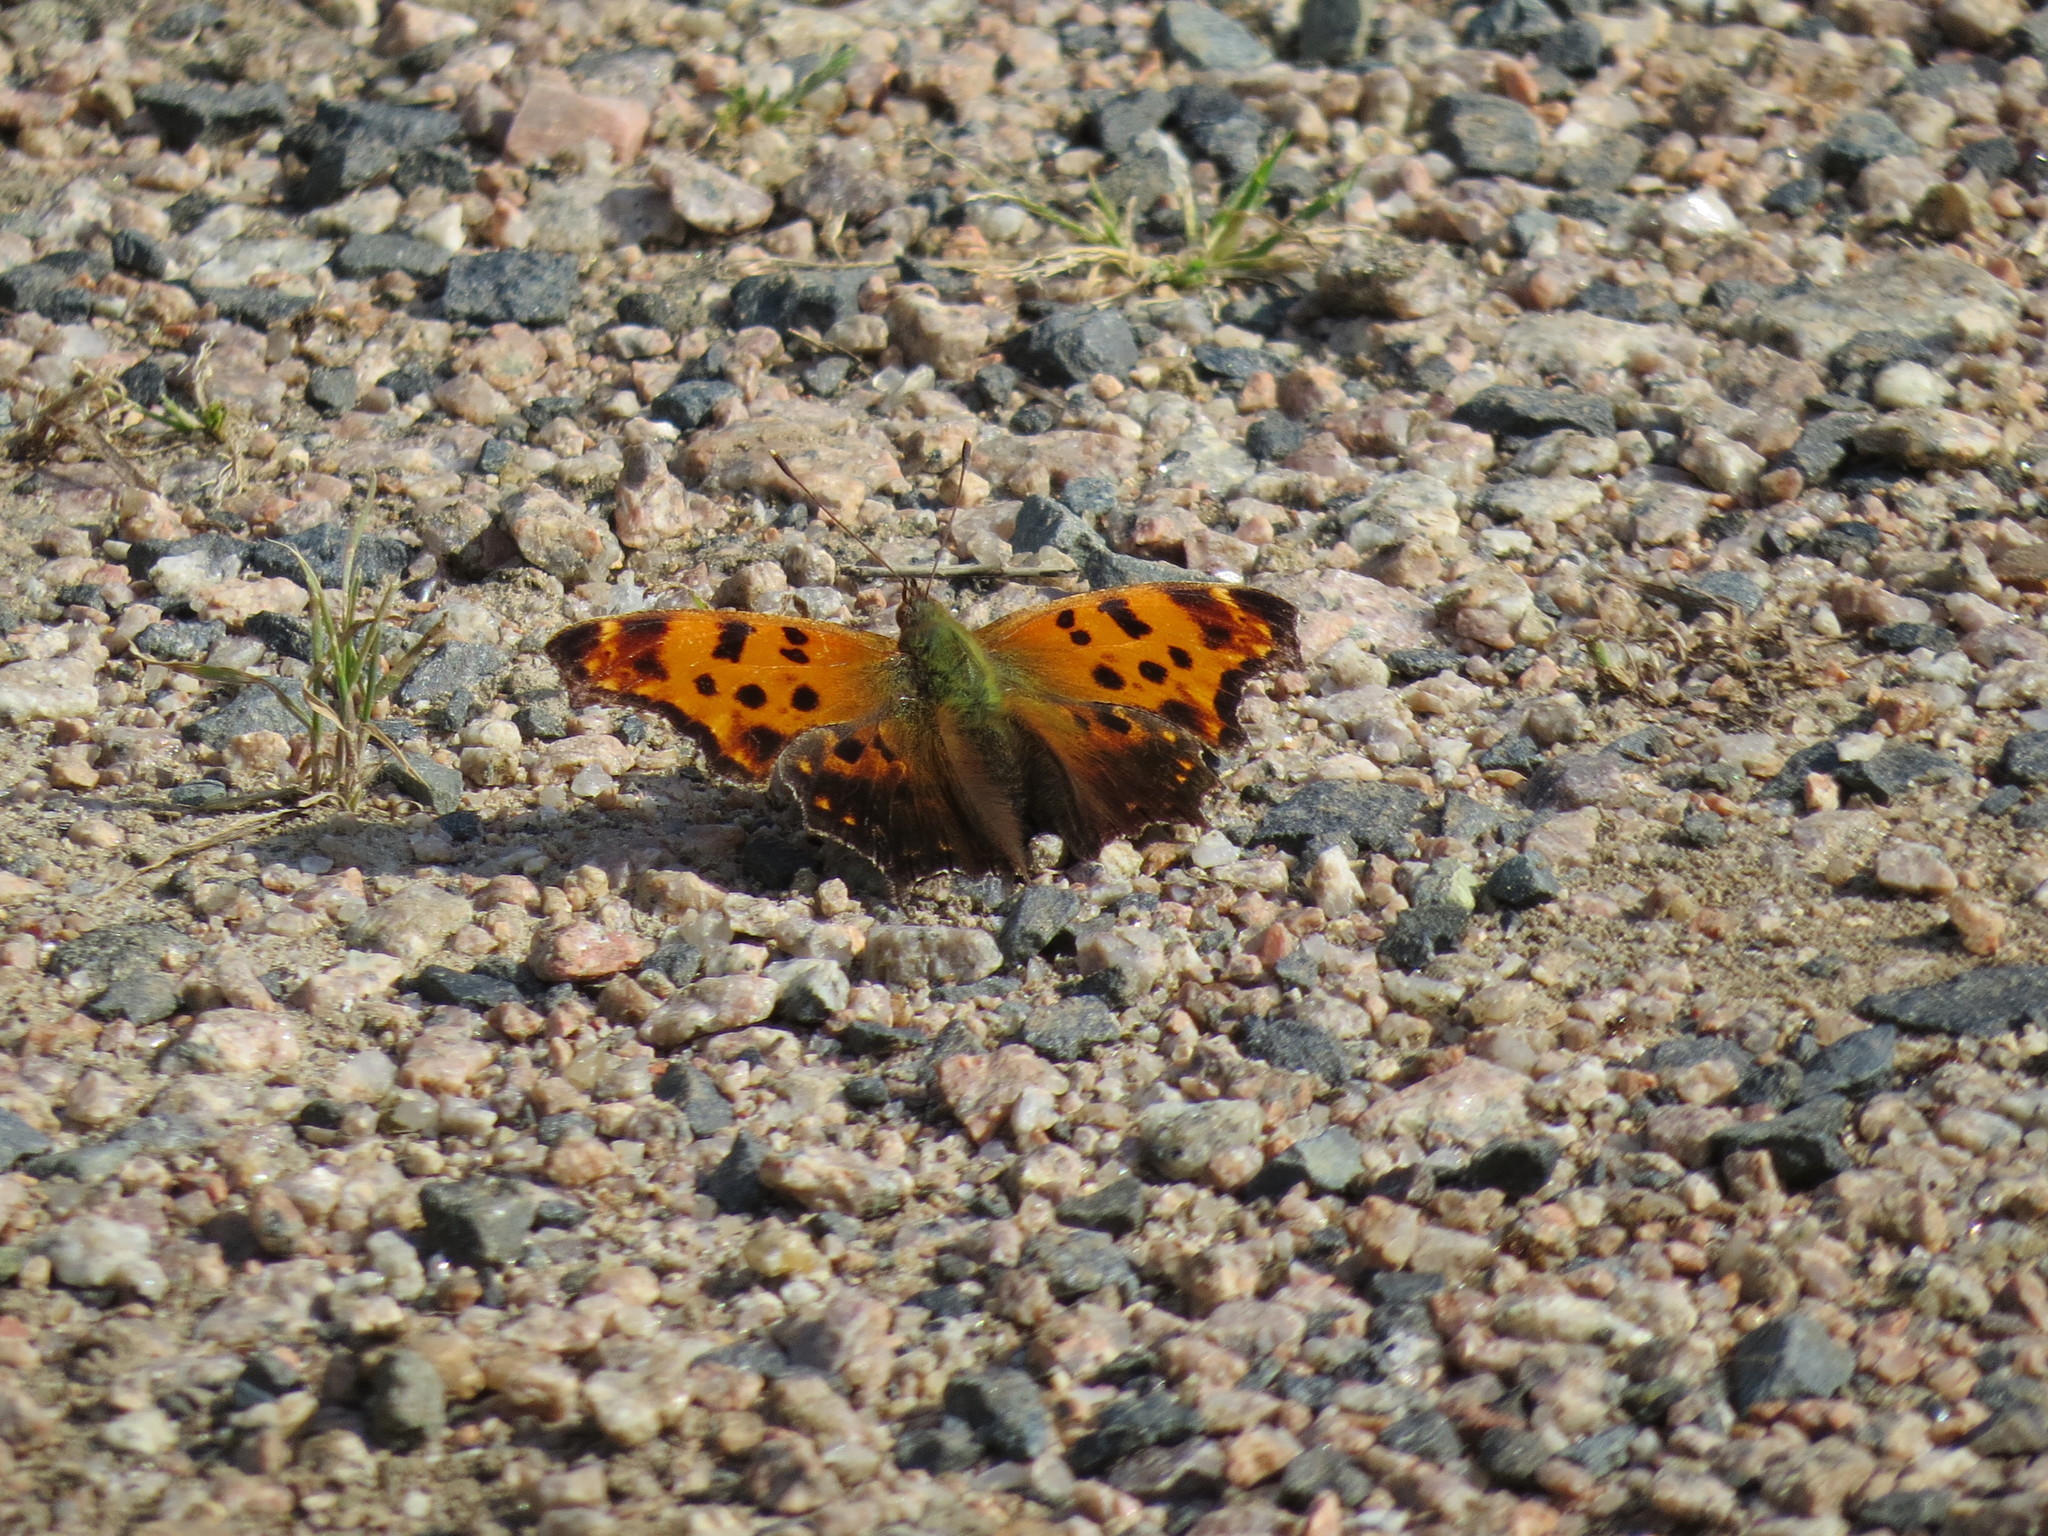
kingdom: Animalia
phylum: Arthropoda
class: Insecta
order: Lepidoptera
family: Nymphalidae
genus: Polygonia
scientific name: Polygonia comma
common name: Eastern comma
